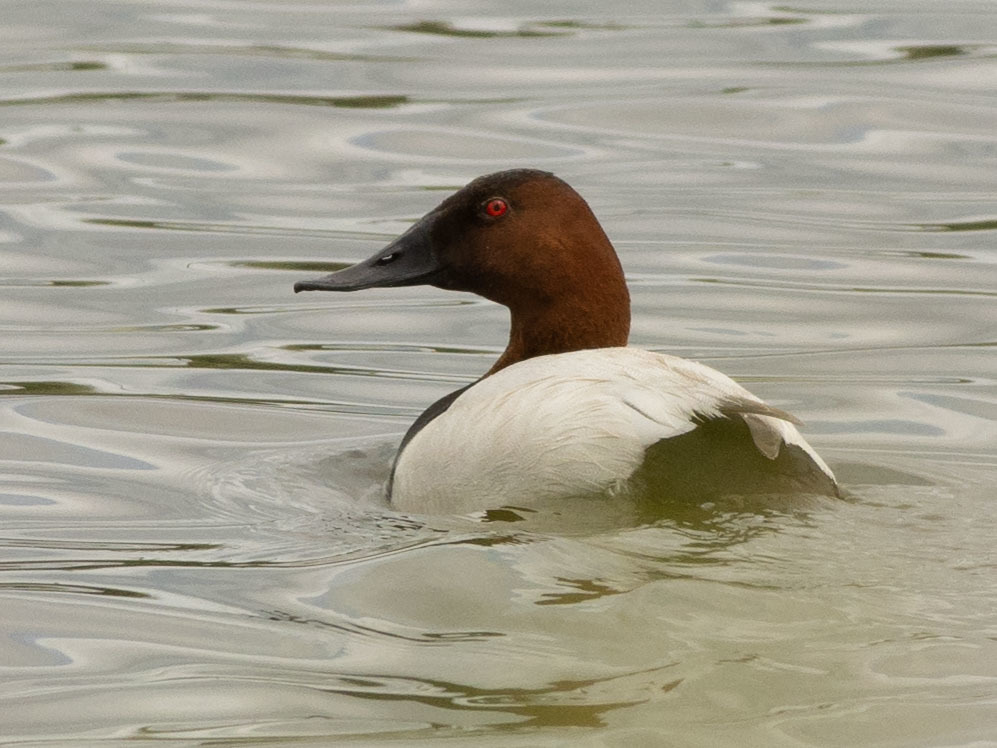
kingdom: Animalia
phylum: Chordata
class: Aves
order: Anseriformes
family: Anatidae
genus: Aythya
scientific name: Aythya valisineria
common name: Canvasback
